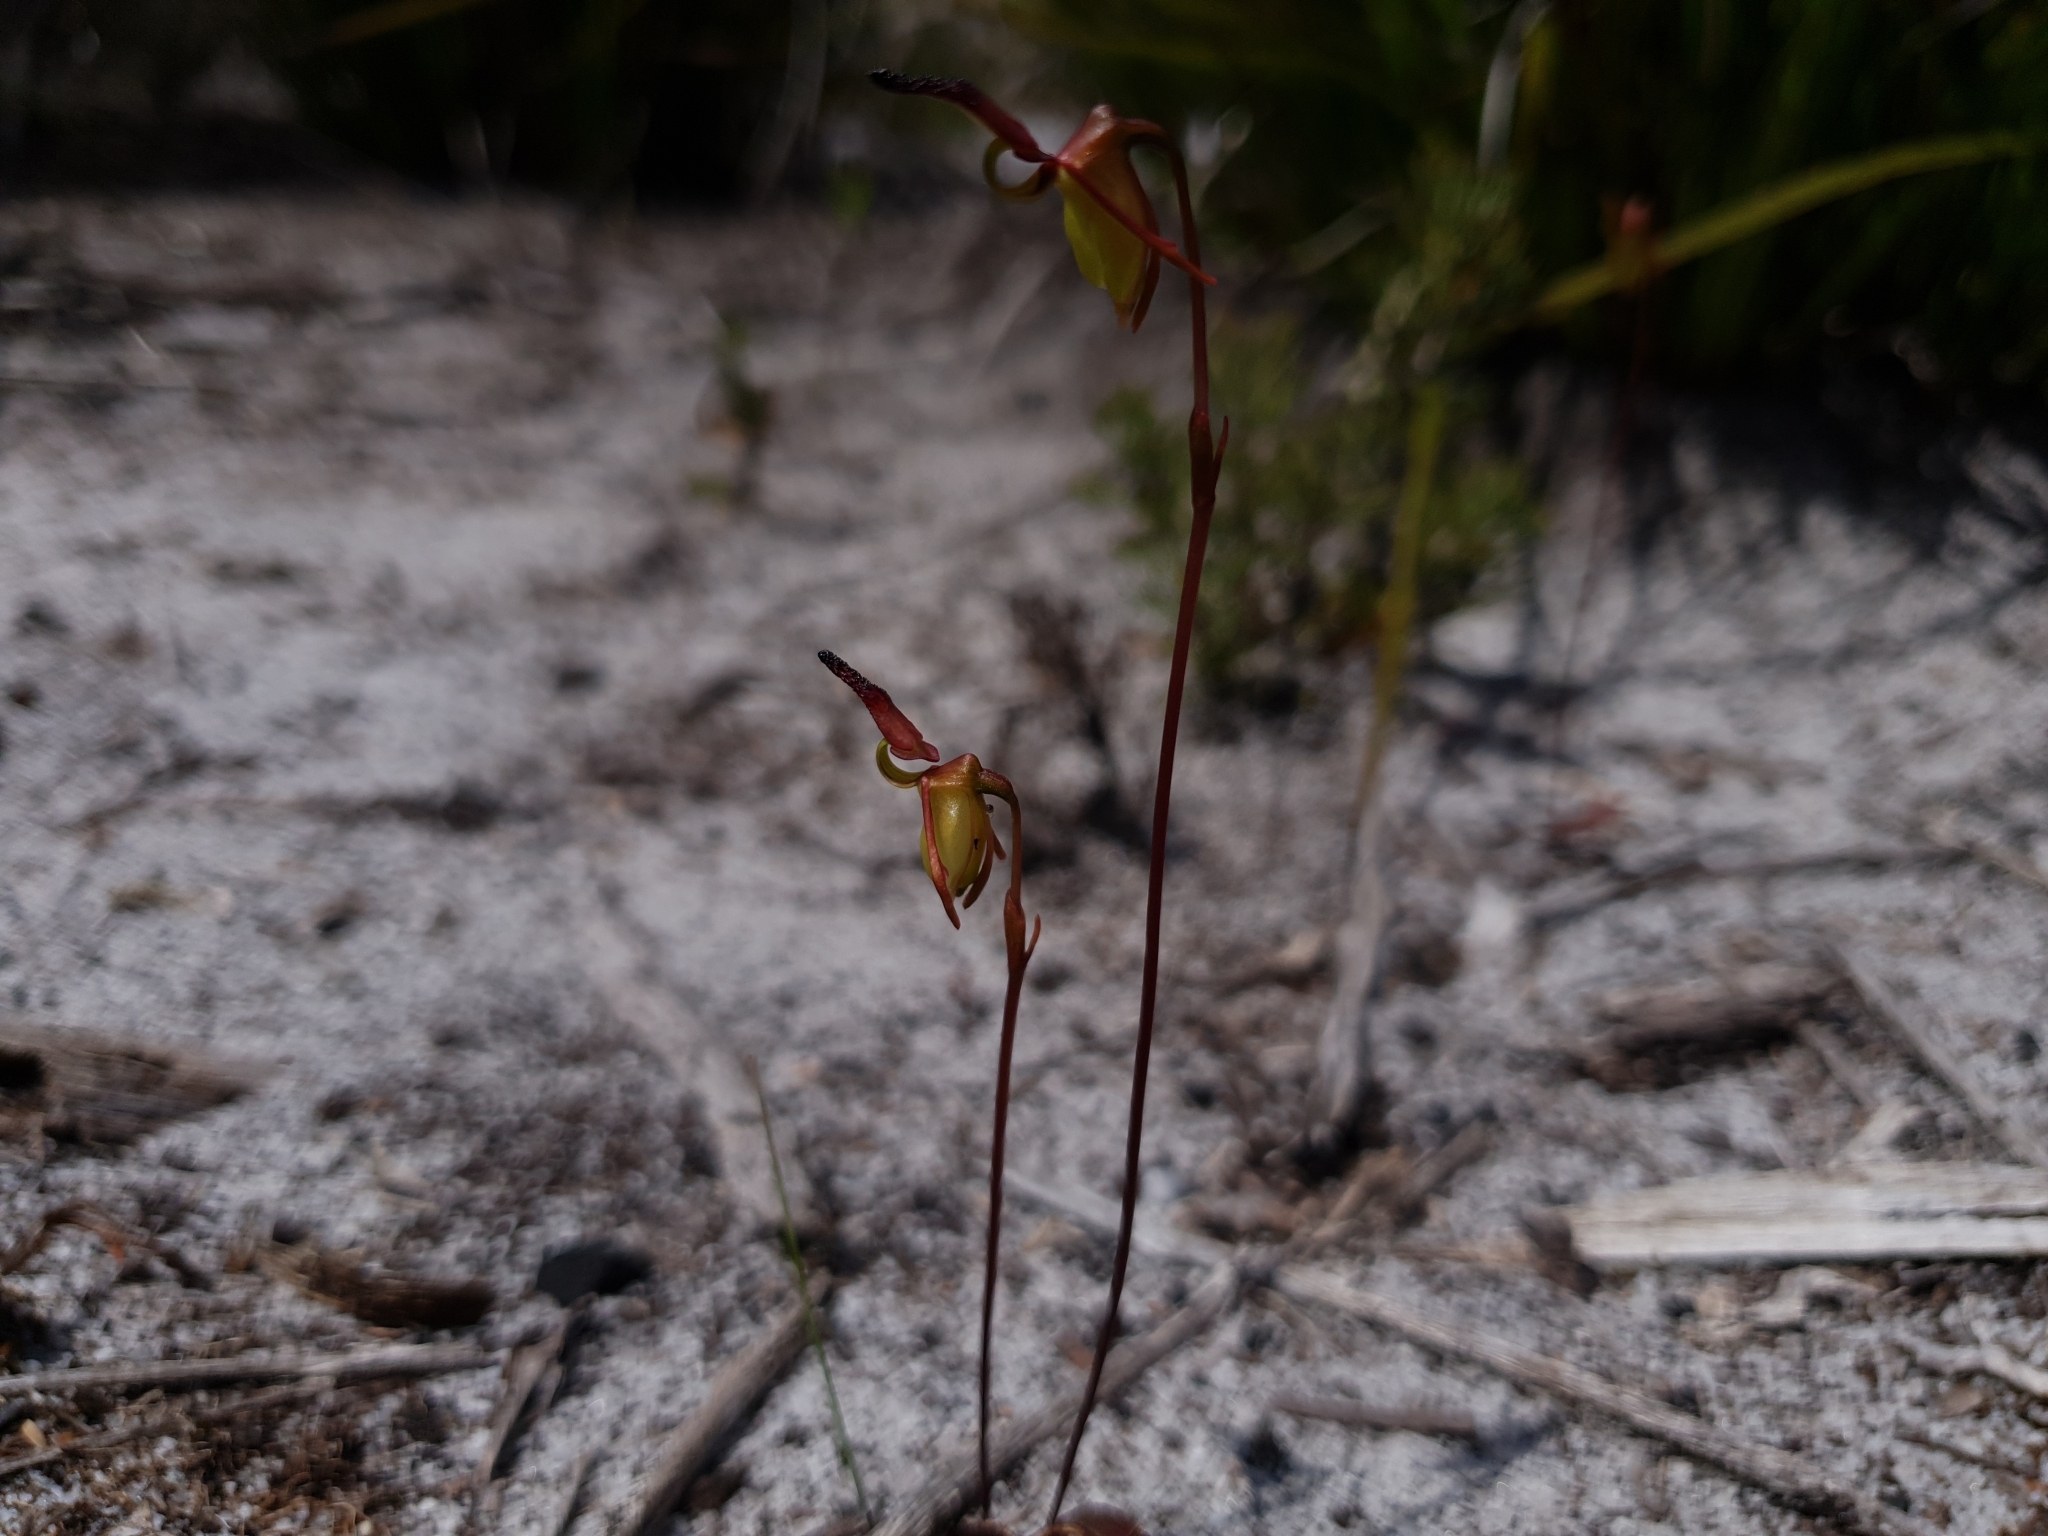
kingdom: Plantae
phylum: Tracheophyta
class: Liliopsida
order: Asparagales
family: Orchidaceae
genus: Caleana
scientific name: Caleana nigrita
